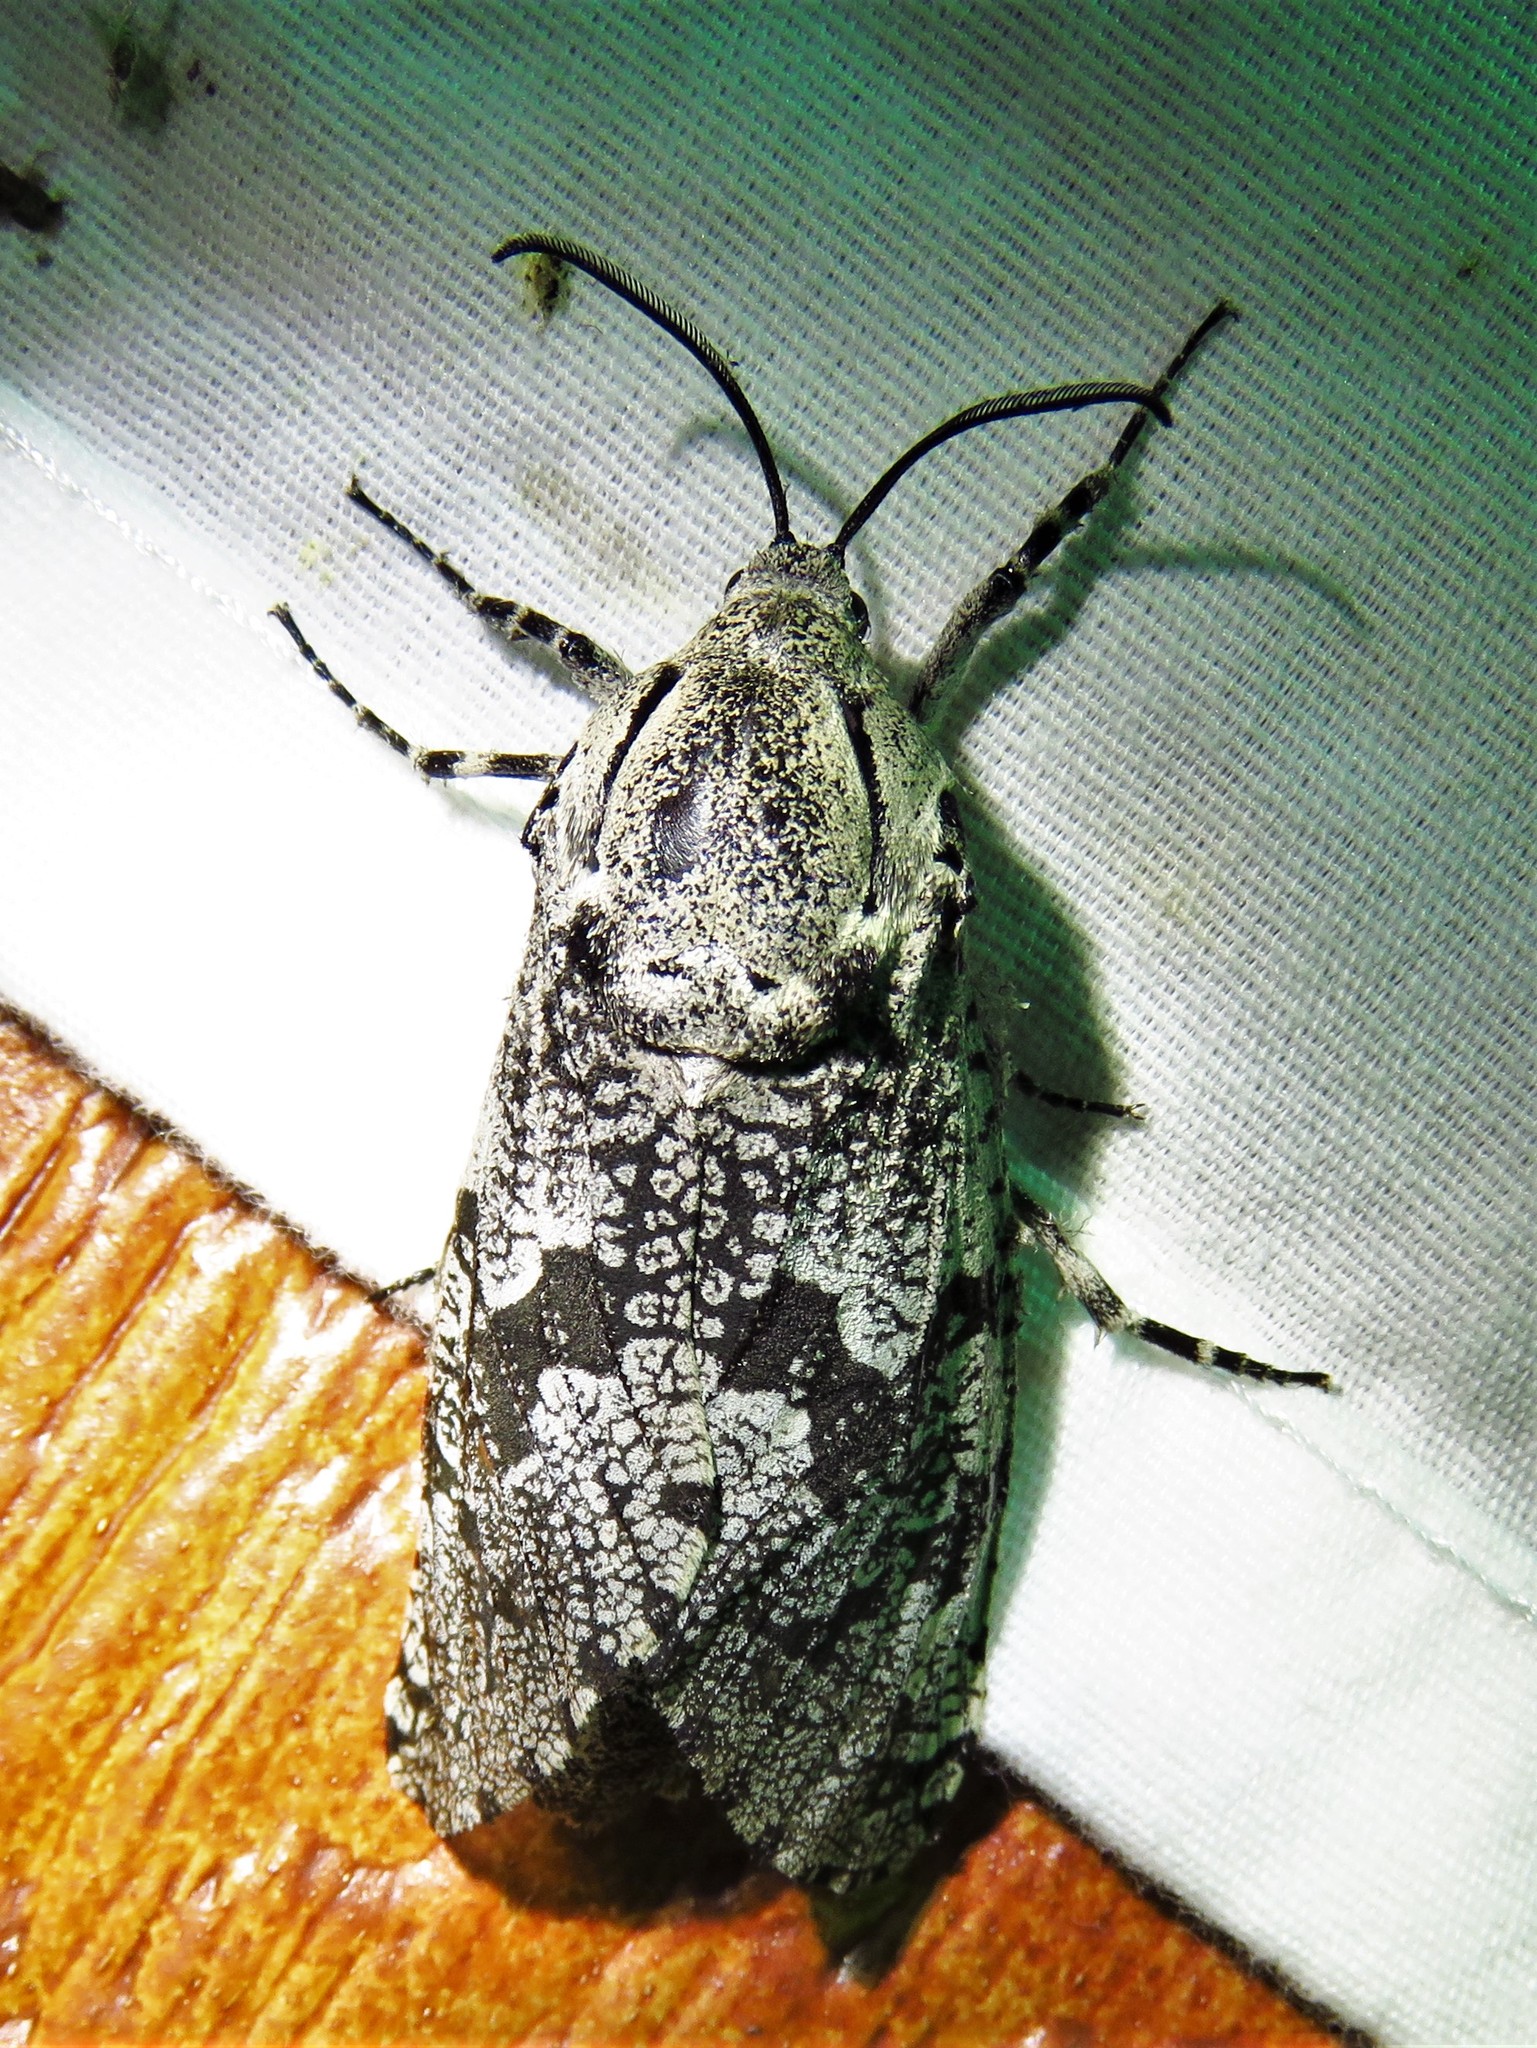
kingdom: Animalia
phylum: Arthropoda
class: Insecta
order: Lepidoptera
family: Cossidae
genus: Prionoxystus
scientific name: Prionoxystus robiniae
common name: Carpenterworm
